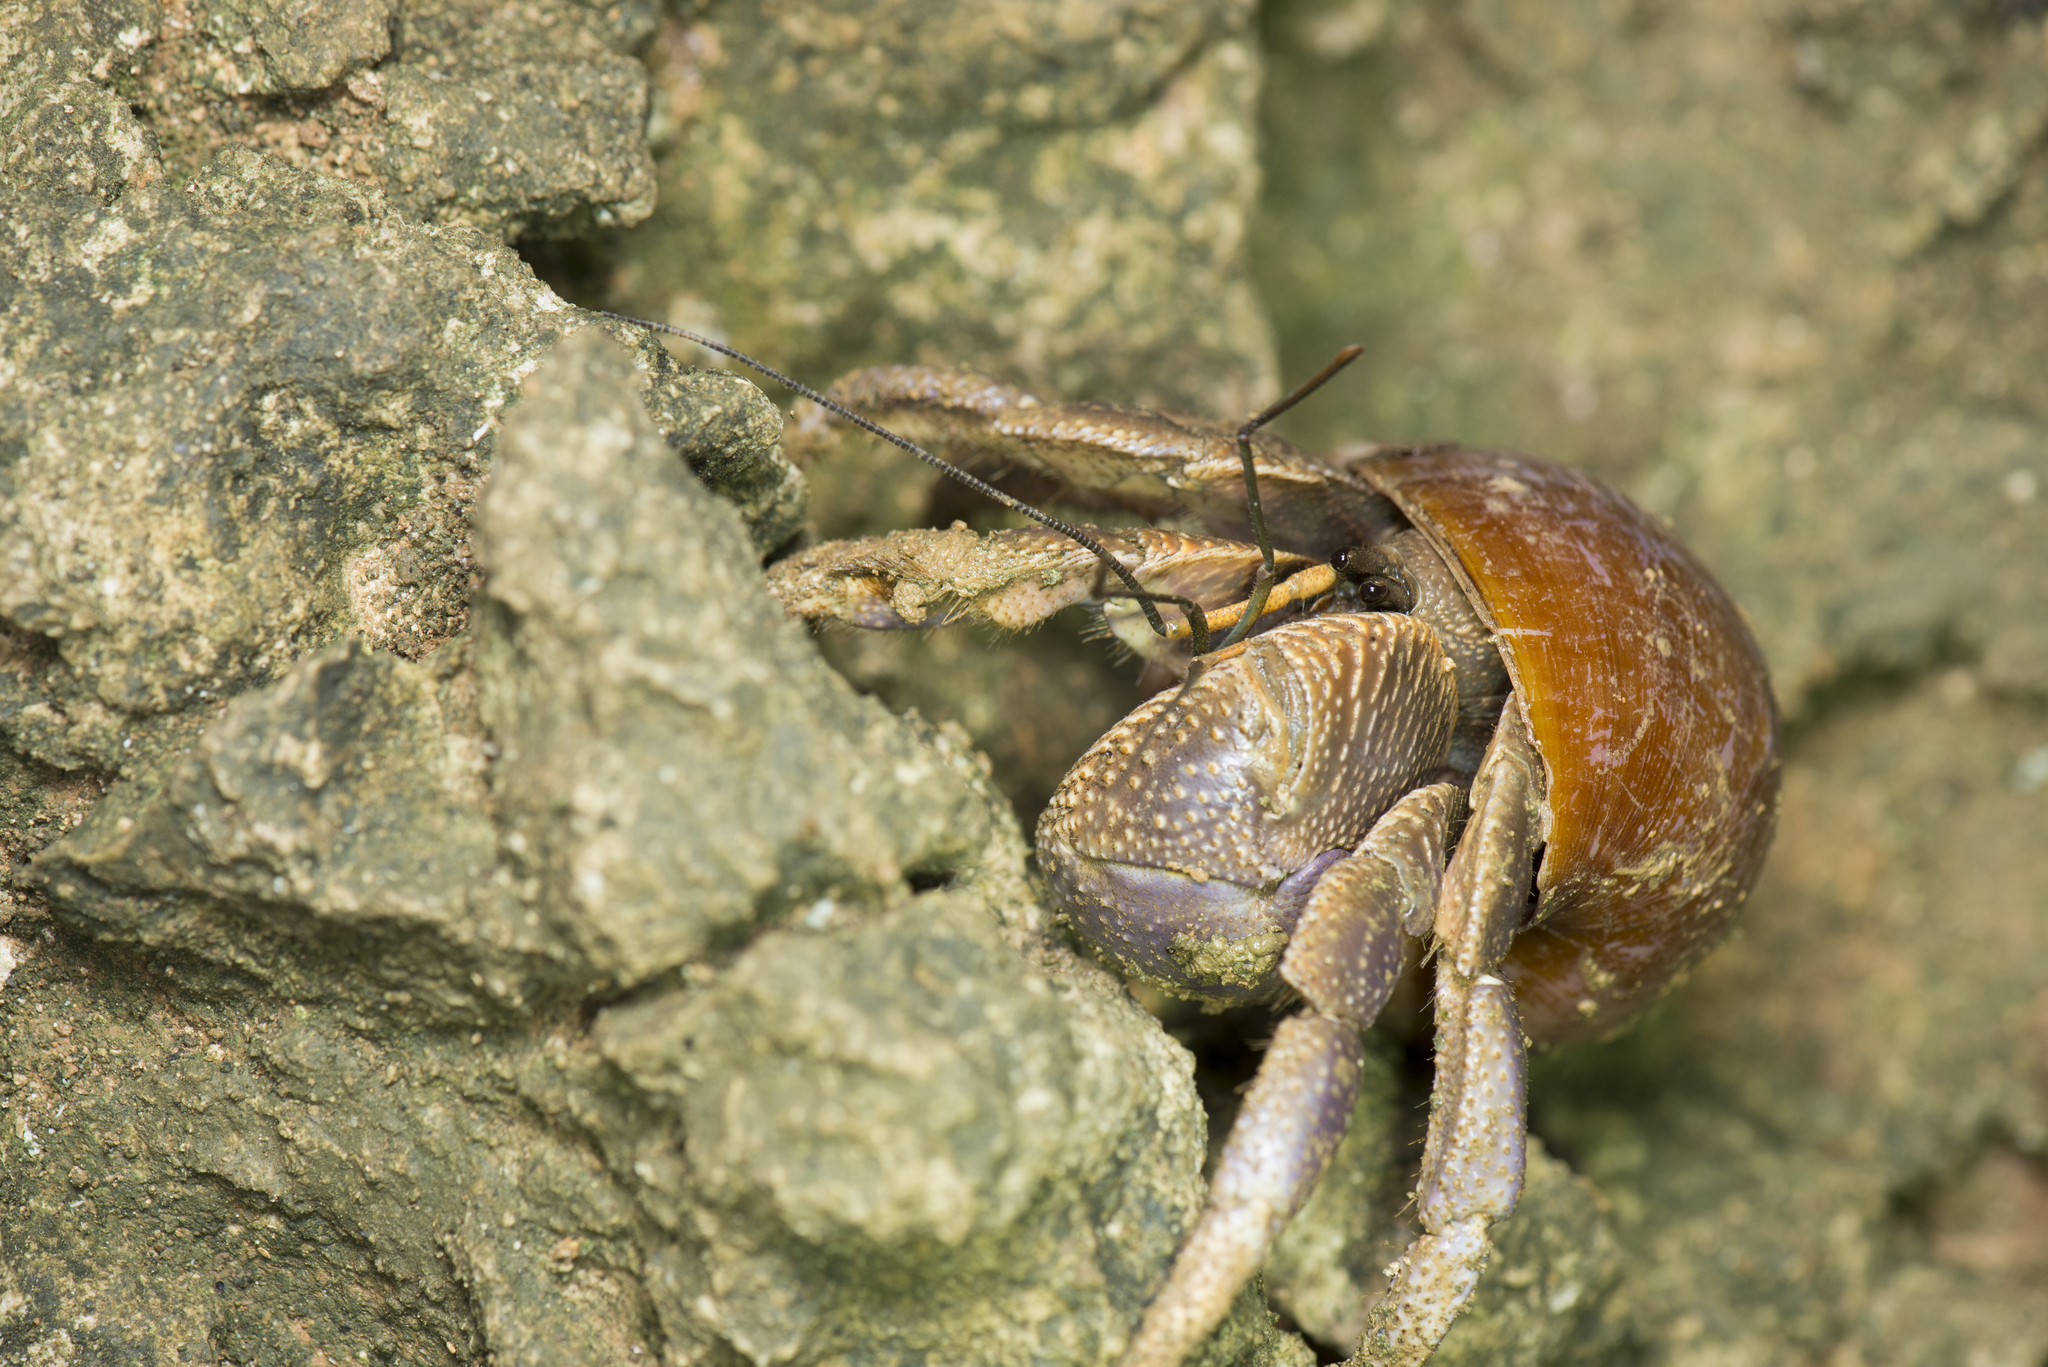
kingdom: Animalia
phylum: Arthropoda
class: Malacostraca
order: Decapoda
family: Coenobitidae
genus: Coenobita
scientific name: Coenobita brevimanus
